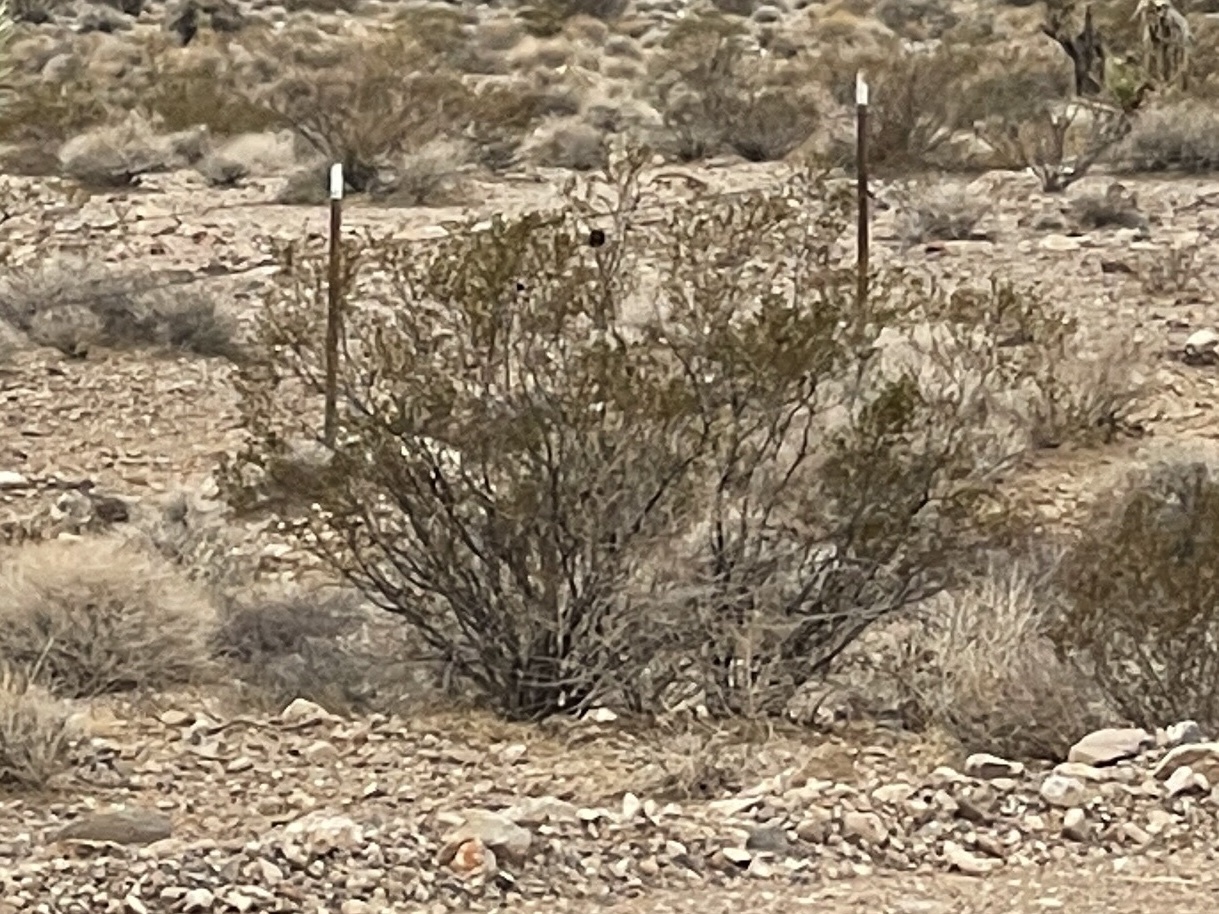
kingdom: Plantae
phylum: Tracheophyta
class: Magnoliopsida
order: Zygophyllales
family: Zygophyllaceae
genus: Larrea
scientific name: Larrea tridentata
